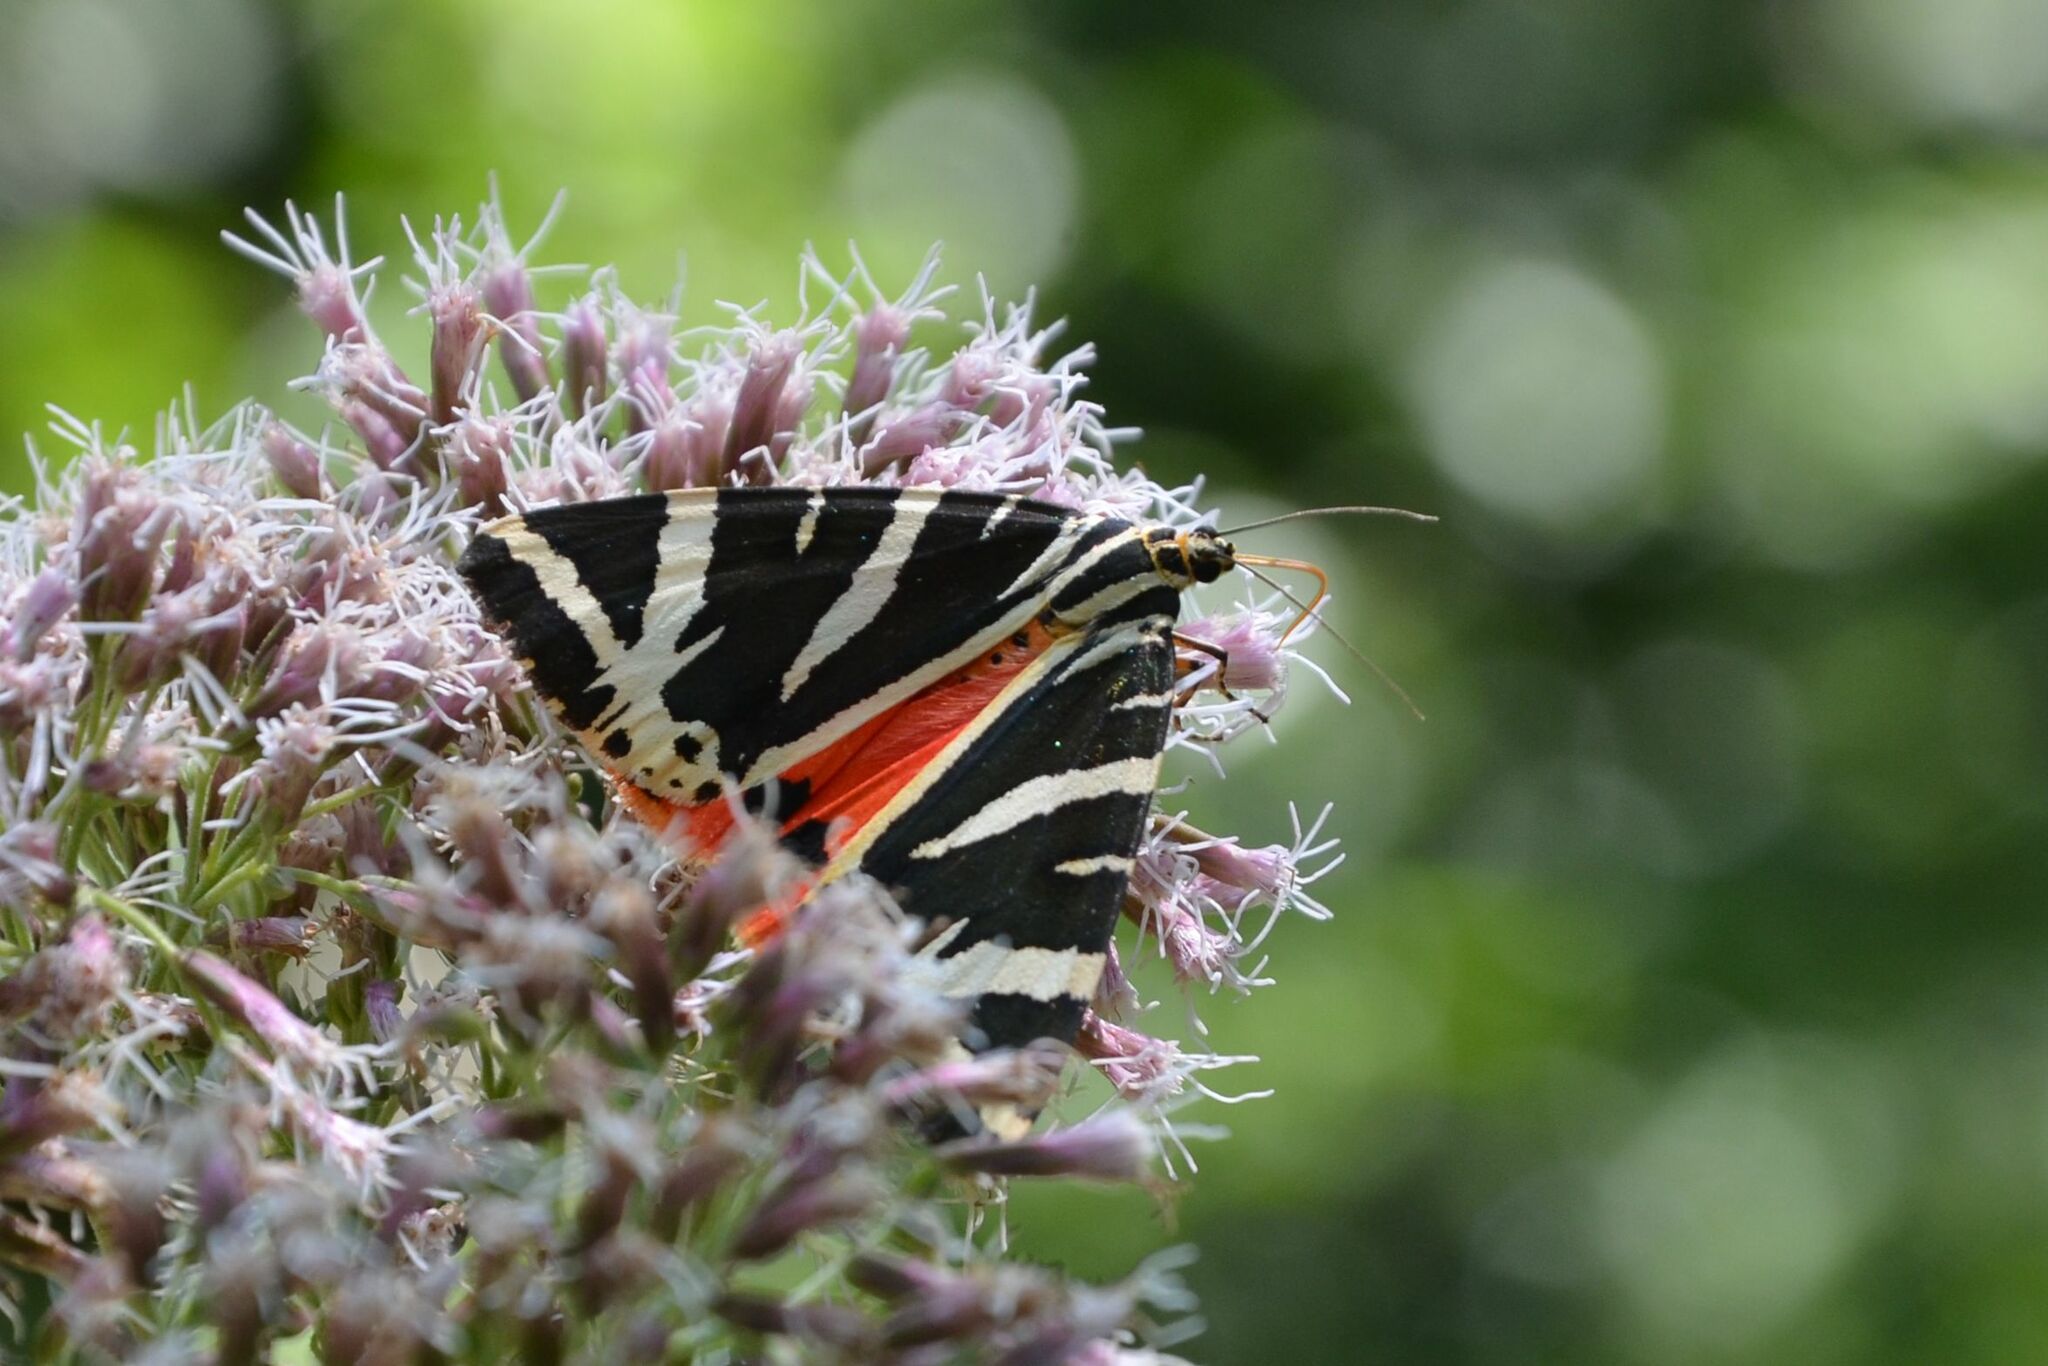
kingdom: Animalia
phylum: Arthropoda
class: Insecta
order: Lepidoptera
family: Erebidae
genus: Euplagia
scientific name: Euplagia quadripunctaria
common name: Jersey tiger
